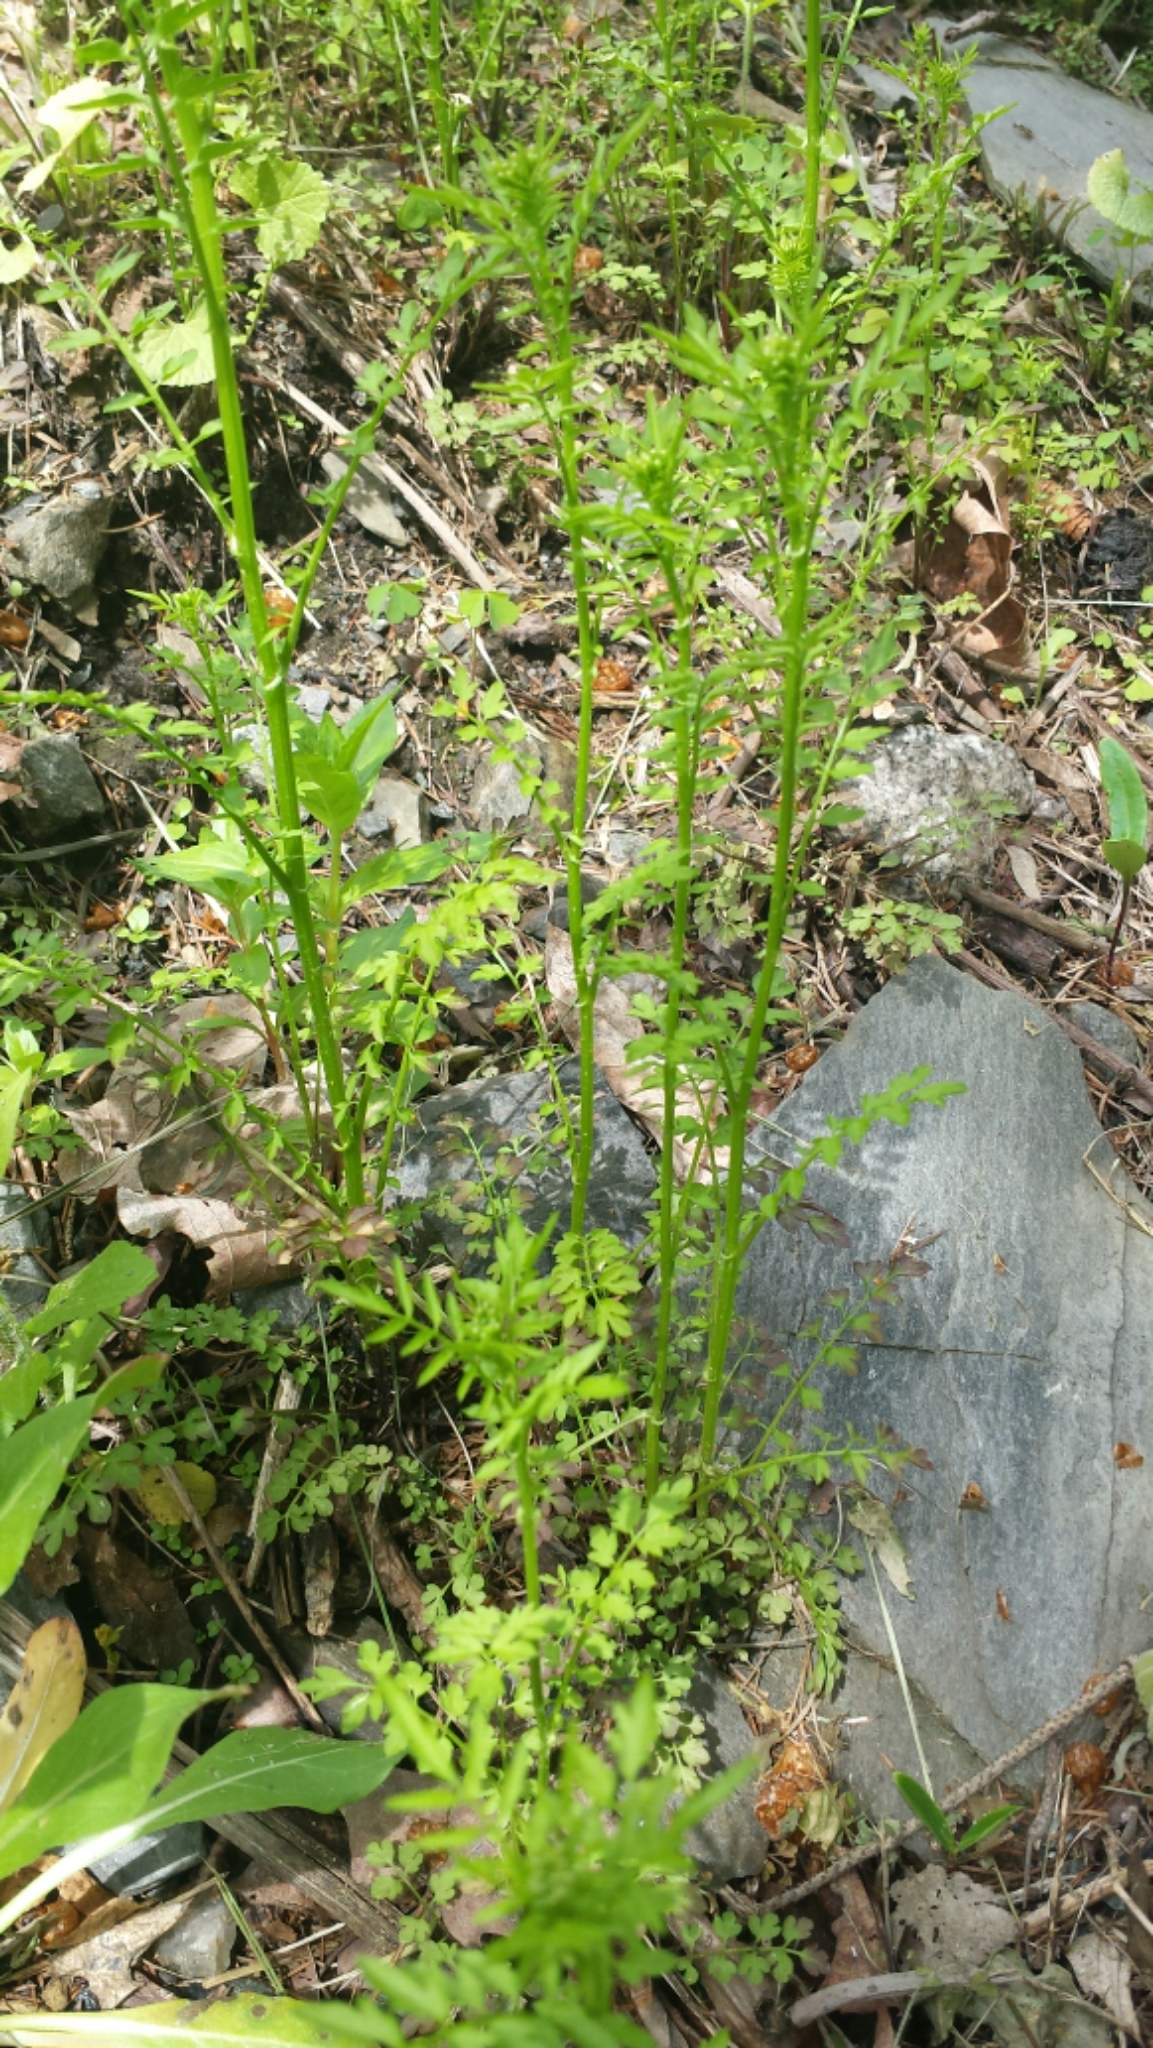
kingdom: Plantae
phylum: Tracheophyta
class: Magnoliopsida
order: Brassicales
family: Brassicaceae
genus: Cardamine
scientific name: Cardamine impatiens
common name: Narrow-leaved bitter-cress
